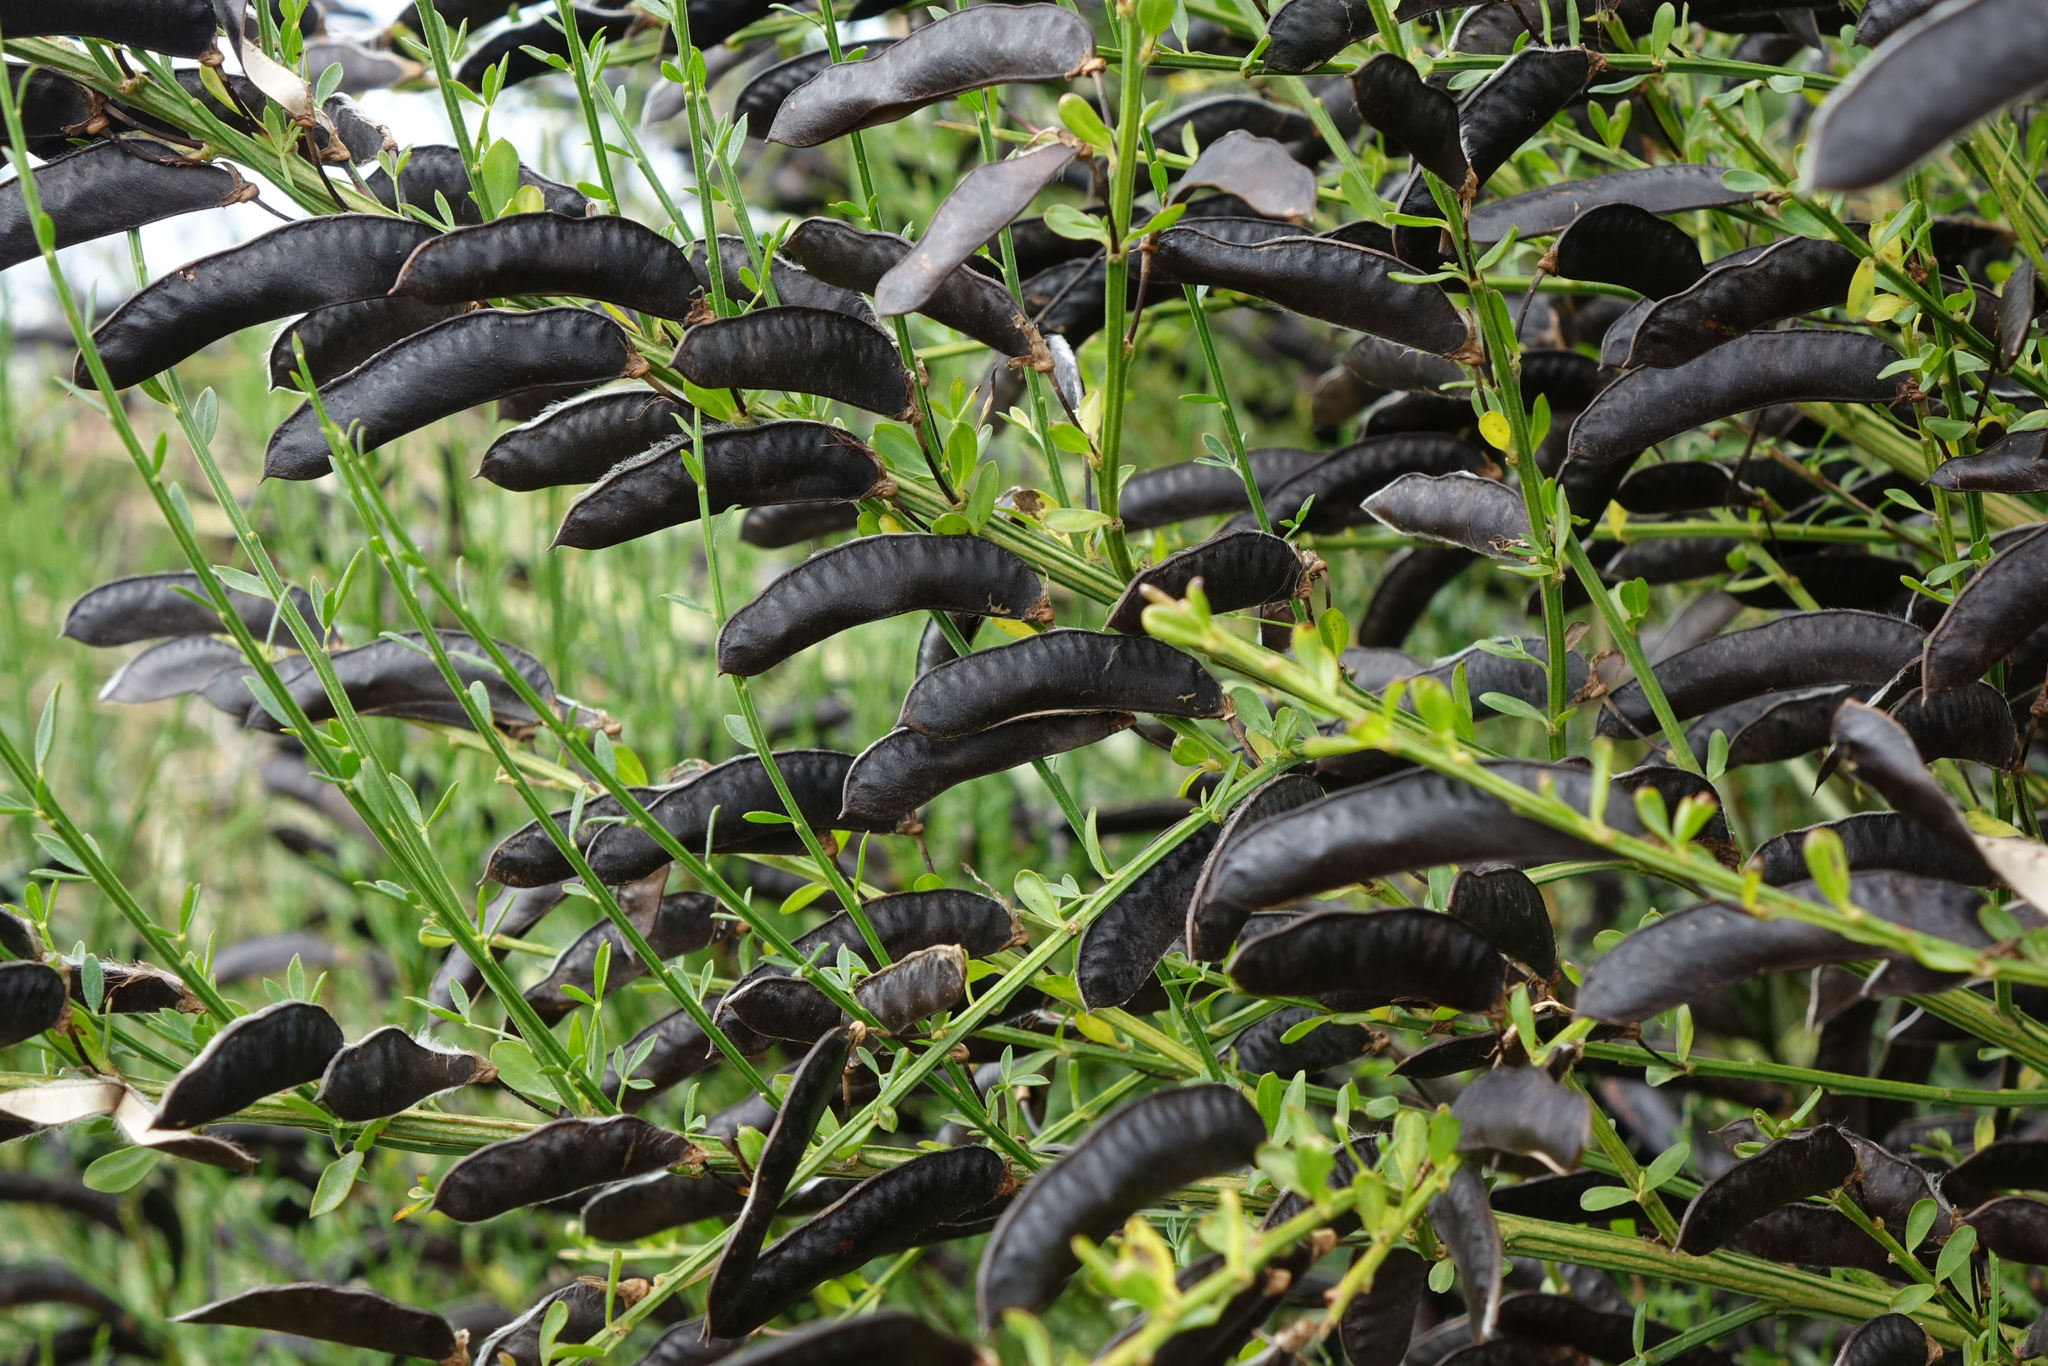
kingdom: Plantae
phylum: Tracheophyta
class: Magnoliopsida
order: Fabales
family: Fabaceae
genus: Cytisus
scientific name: Cytisus scoparius
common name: Scotch broom
